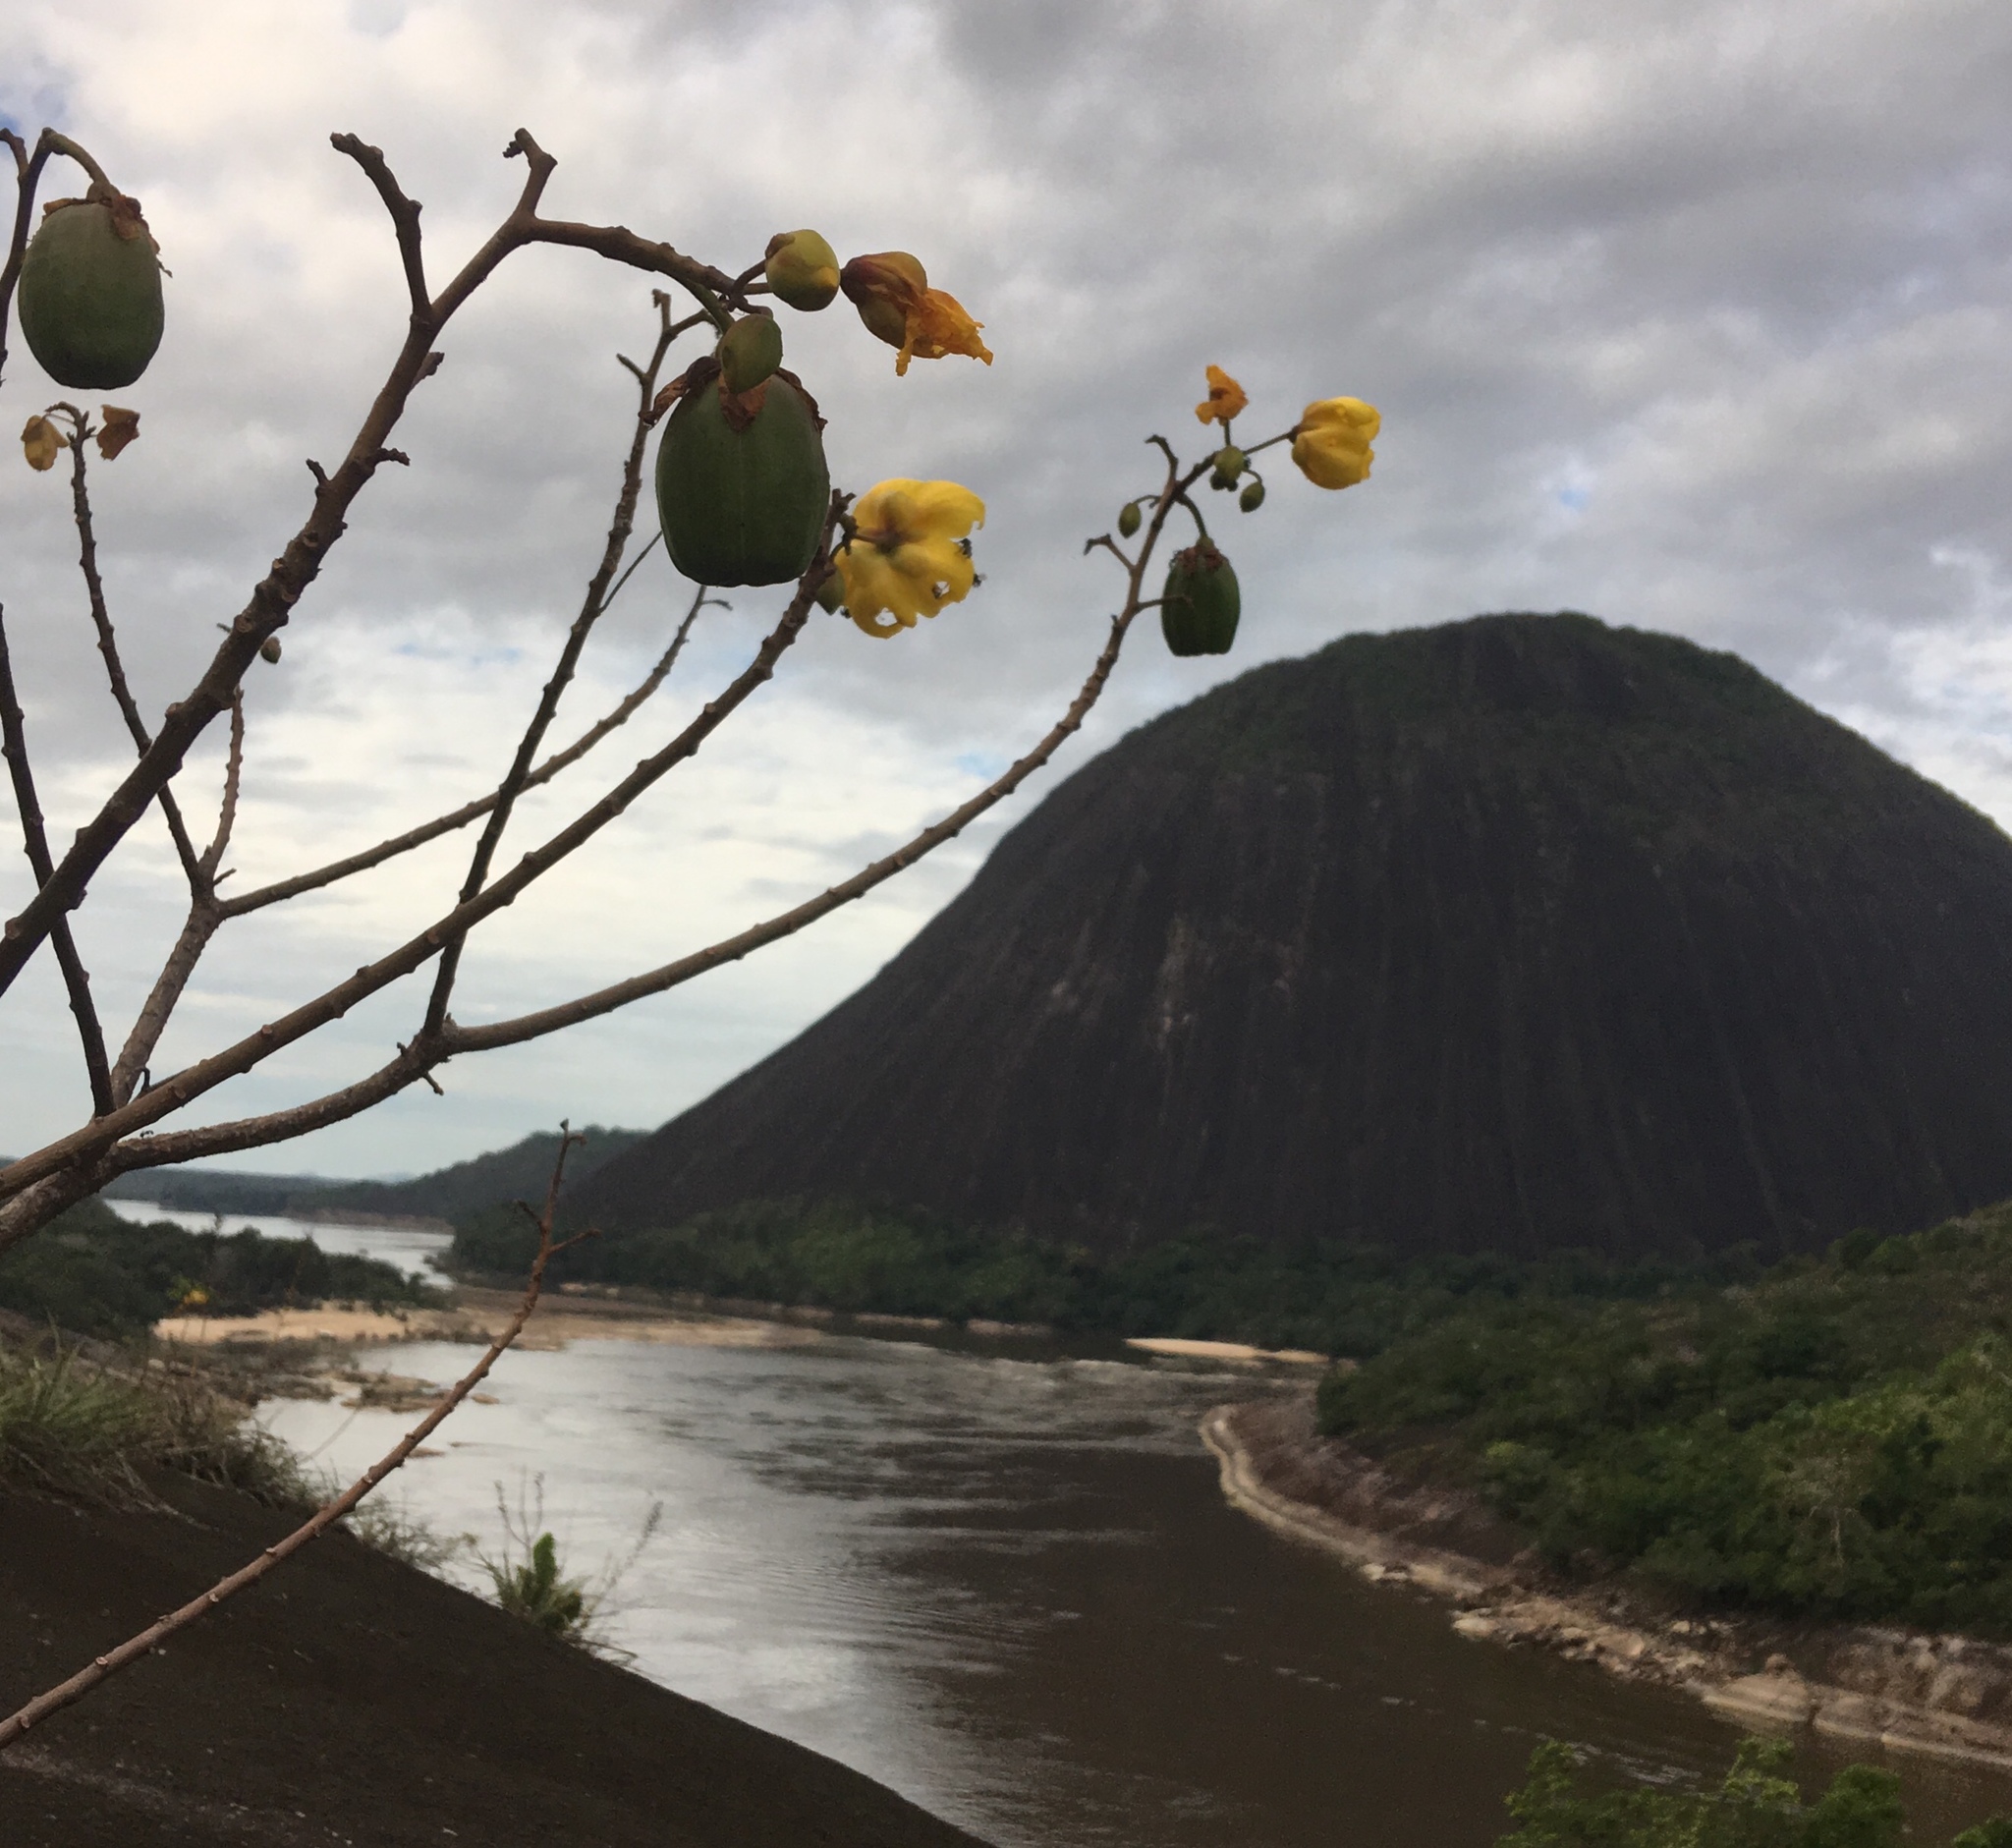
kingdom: Plantae
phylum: Tracheophyta
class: Magnoliopsida
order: Malvales
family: Cochlospermaceae
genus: Cochlospermum
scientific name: Cochlospermum vitifolium
